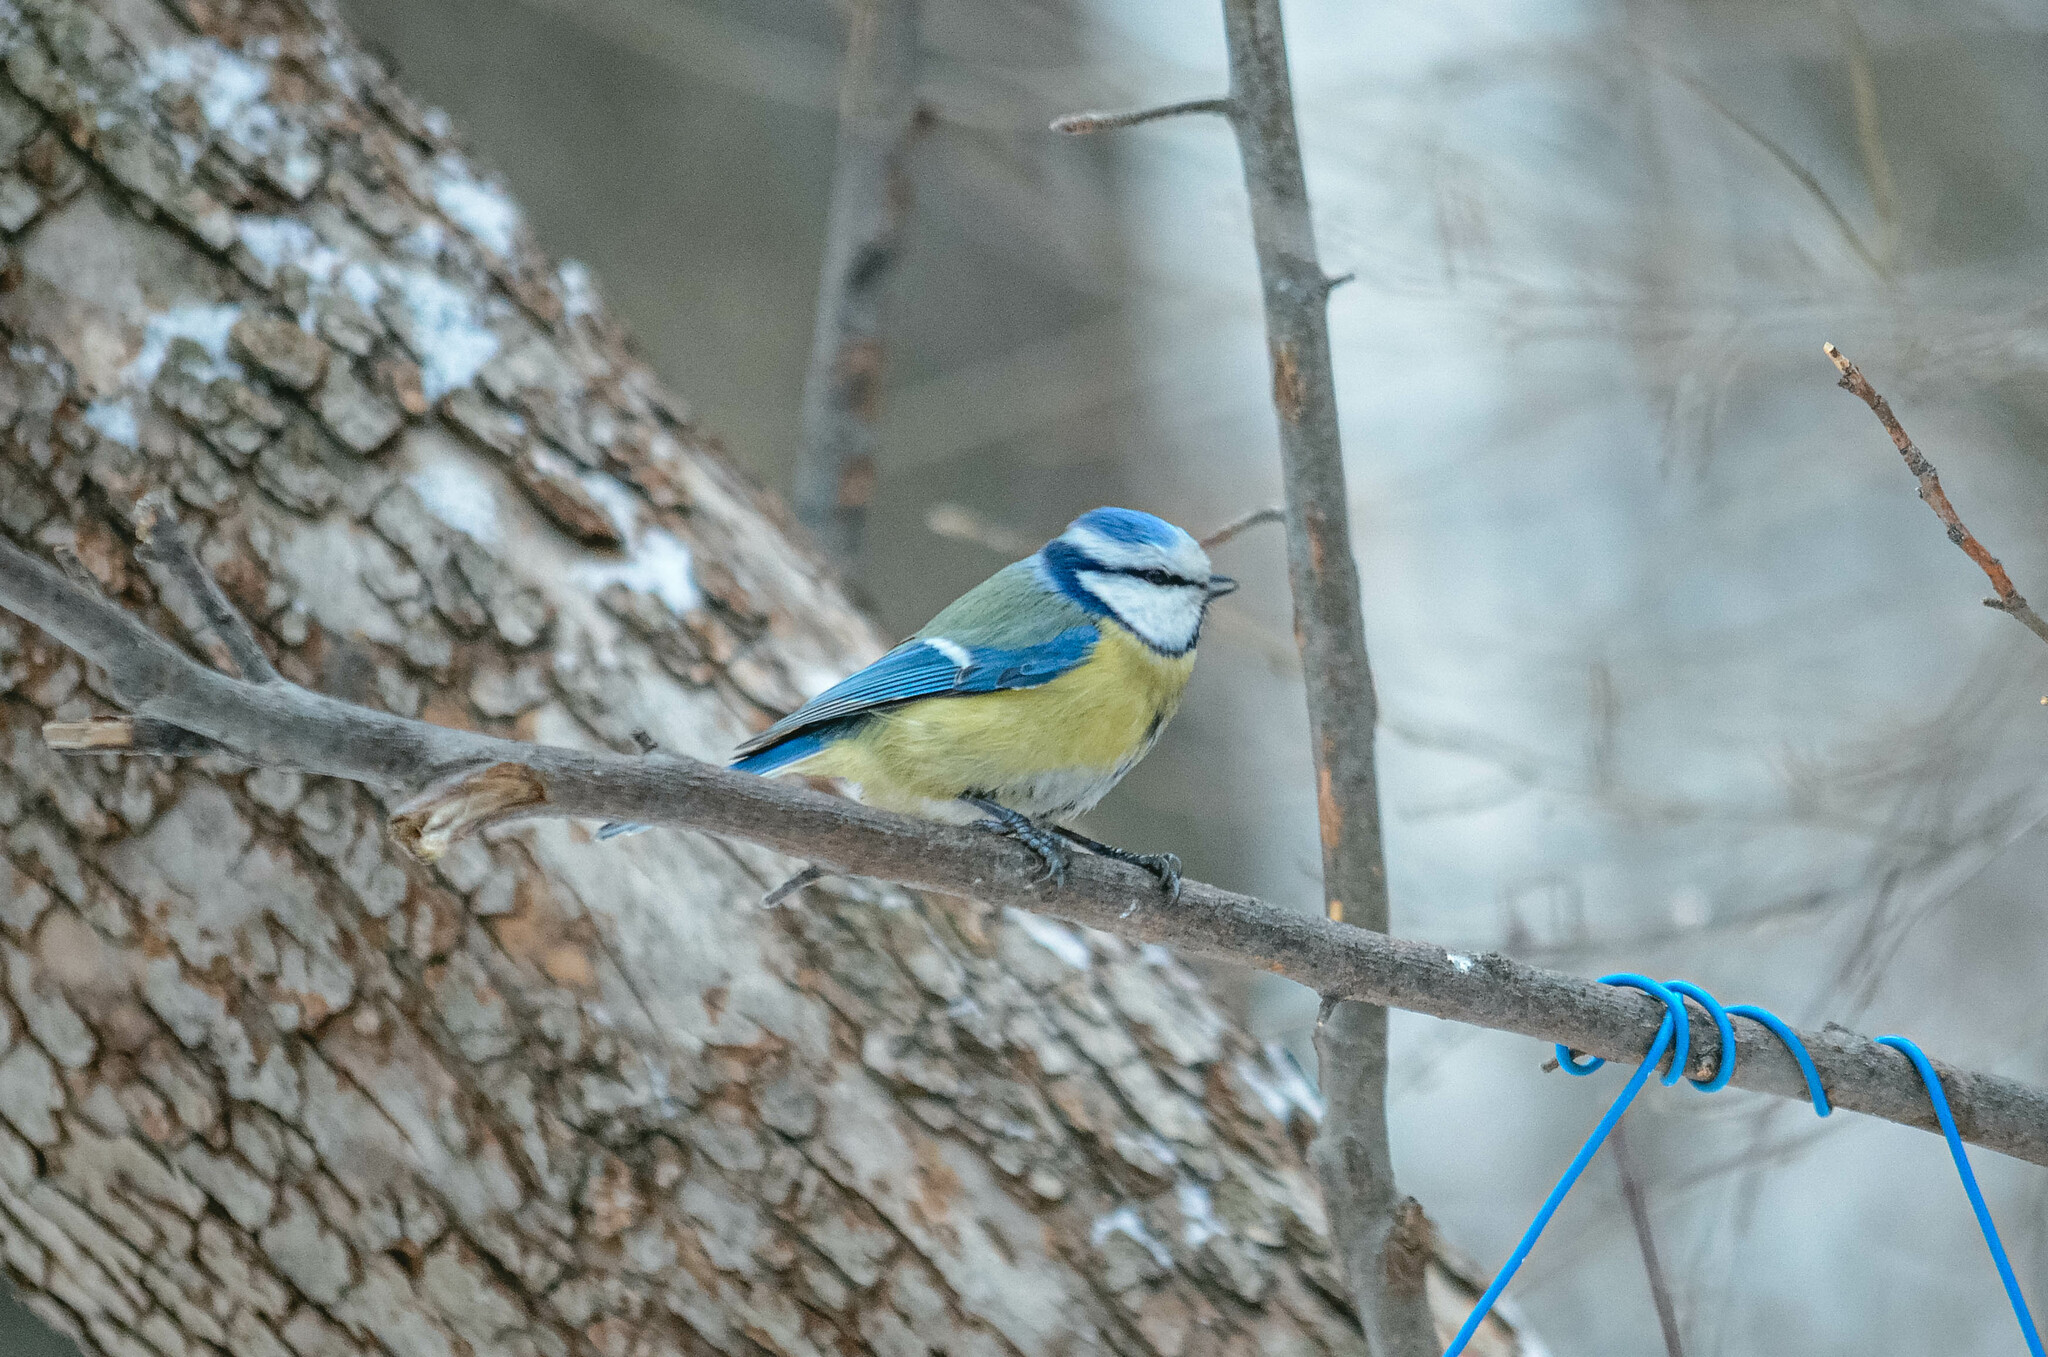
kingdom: Animalia
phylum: Chordata
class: Aves
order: Passeriformes
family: Paridae
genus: Cyanistes
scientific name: Cyanistes caeruleus
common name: Eurasian blue tit
